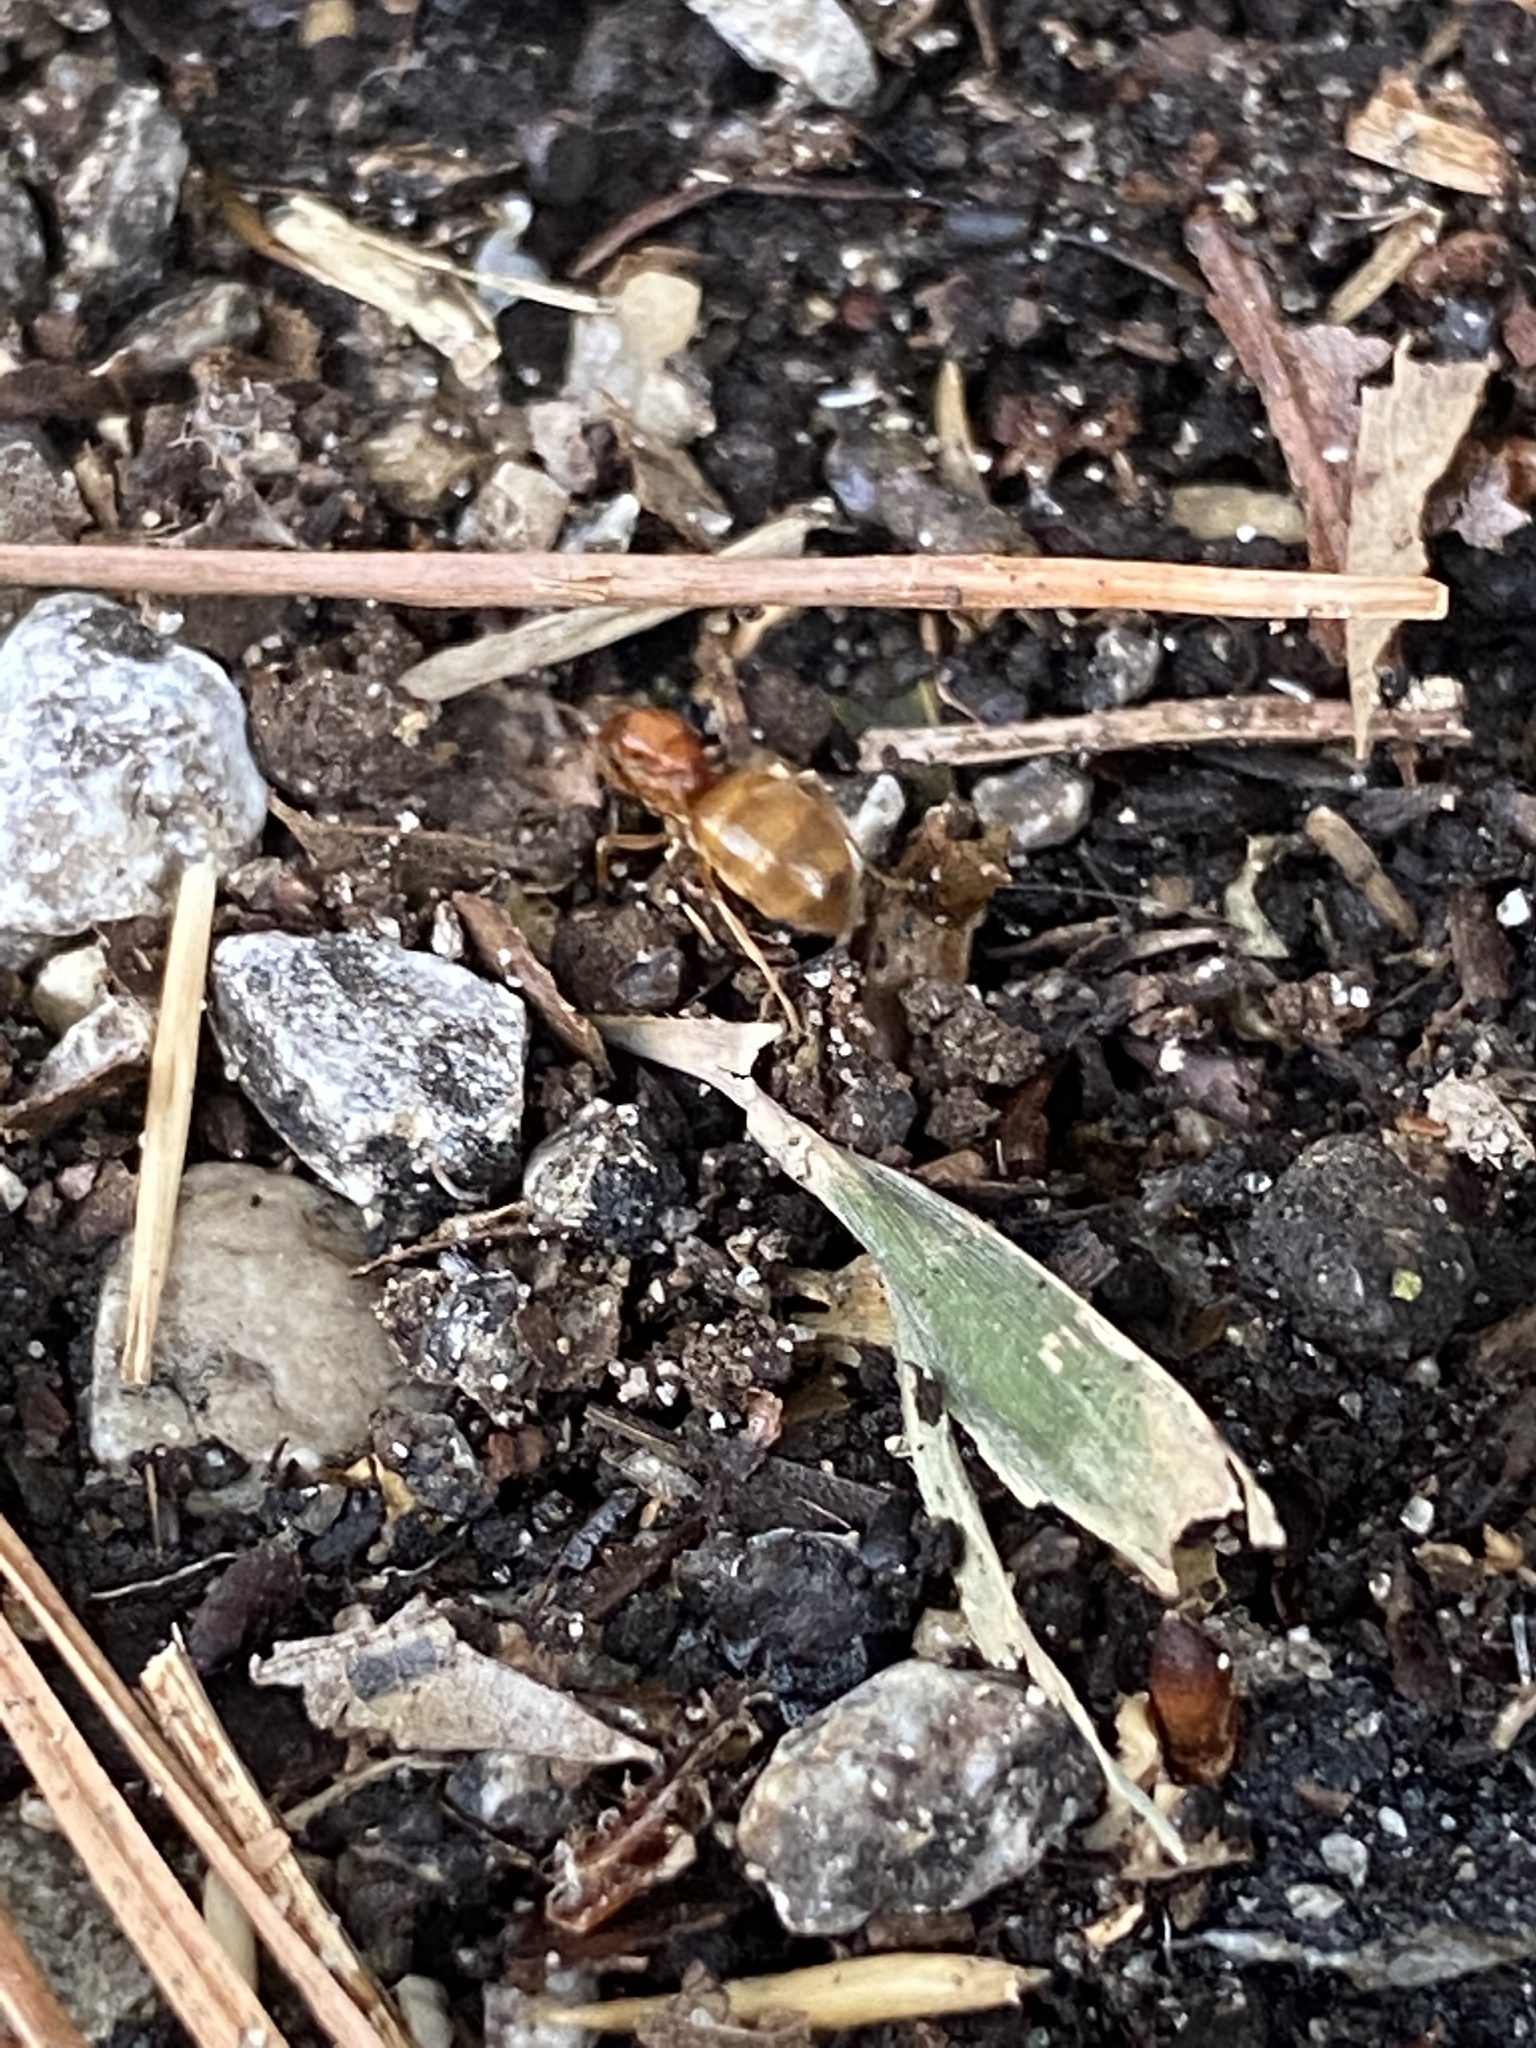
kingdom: Animalia
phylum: Arthropoda
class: Insecta
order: Hymenoptera
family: Formicidae
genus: Prenolepis
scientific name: Prenolepis imparis
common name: Small honey ant
